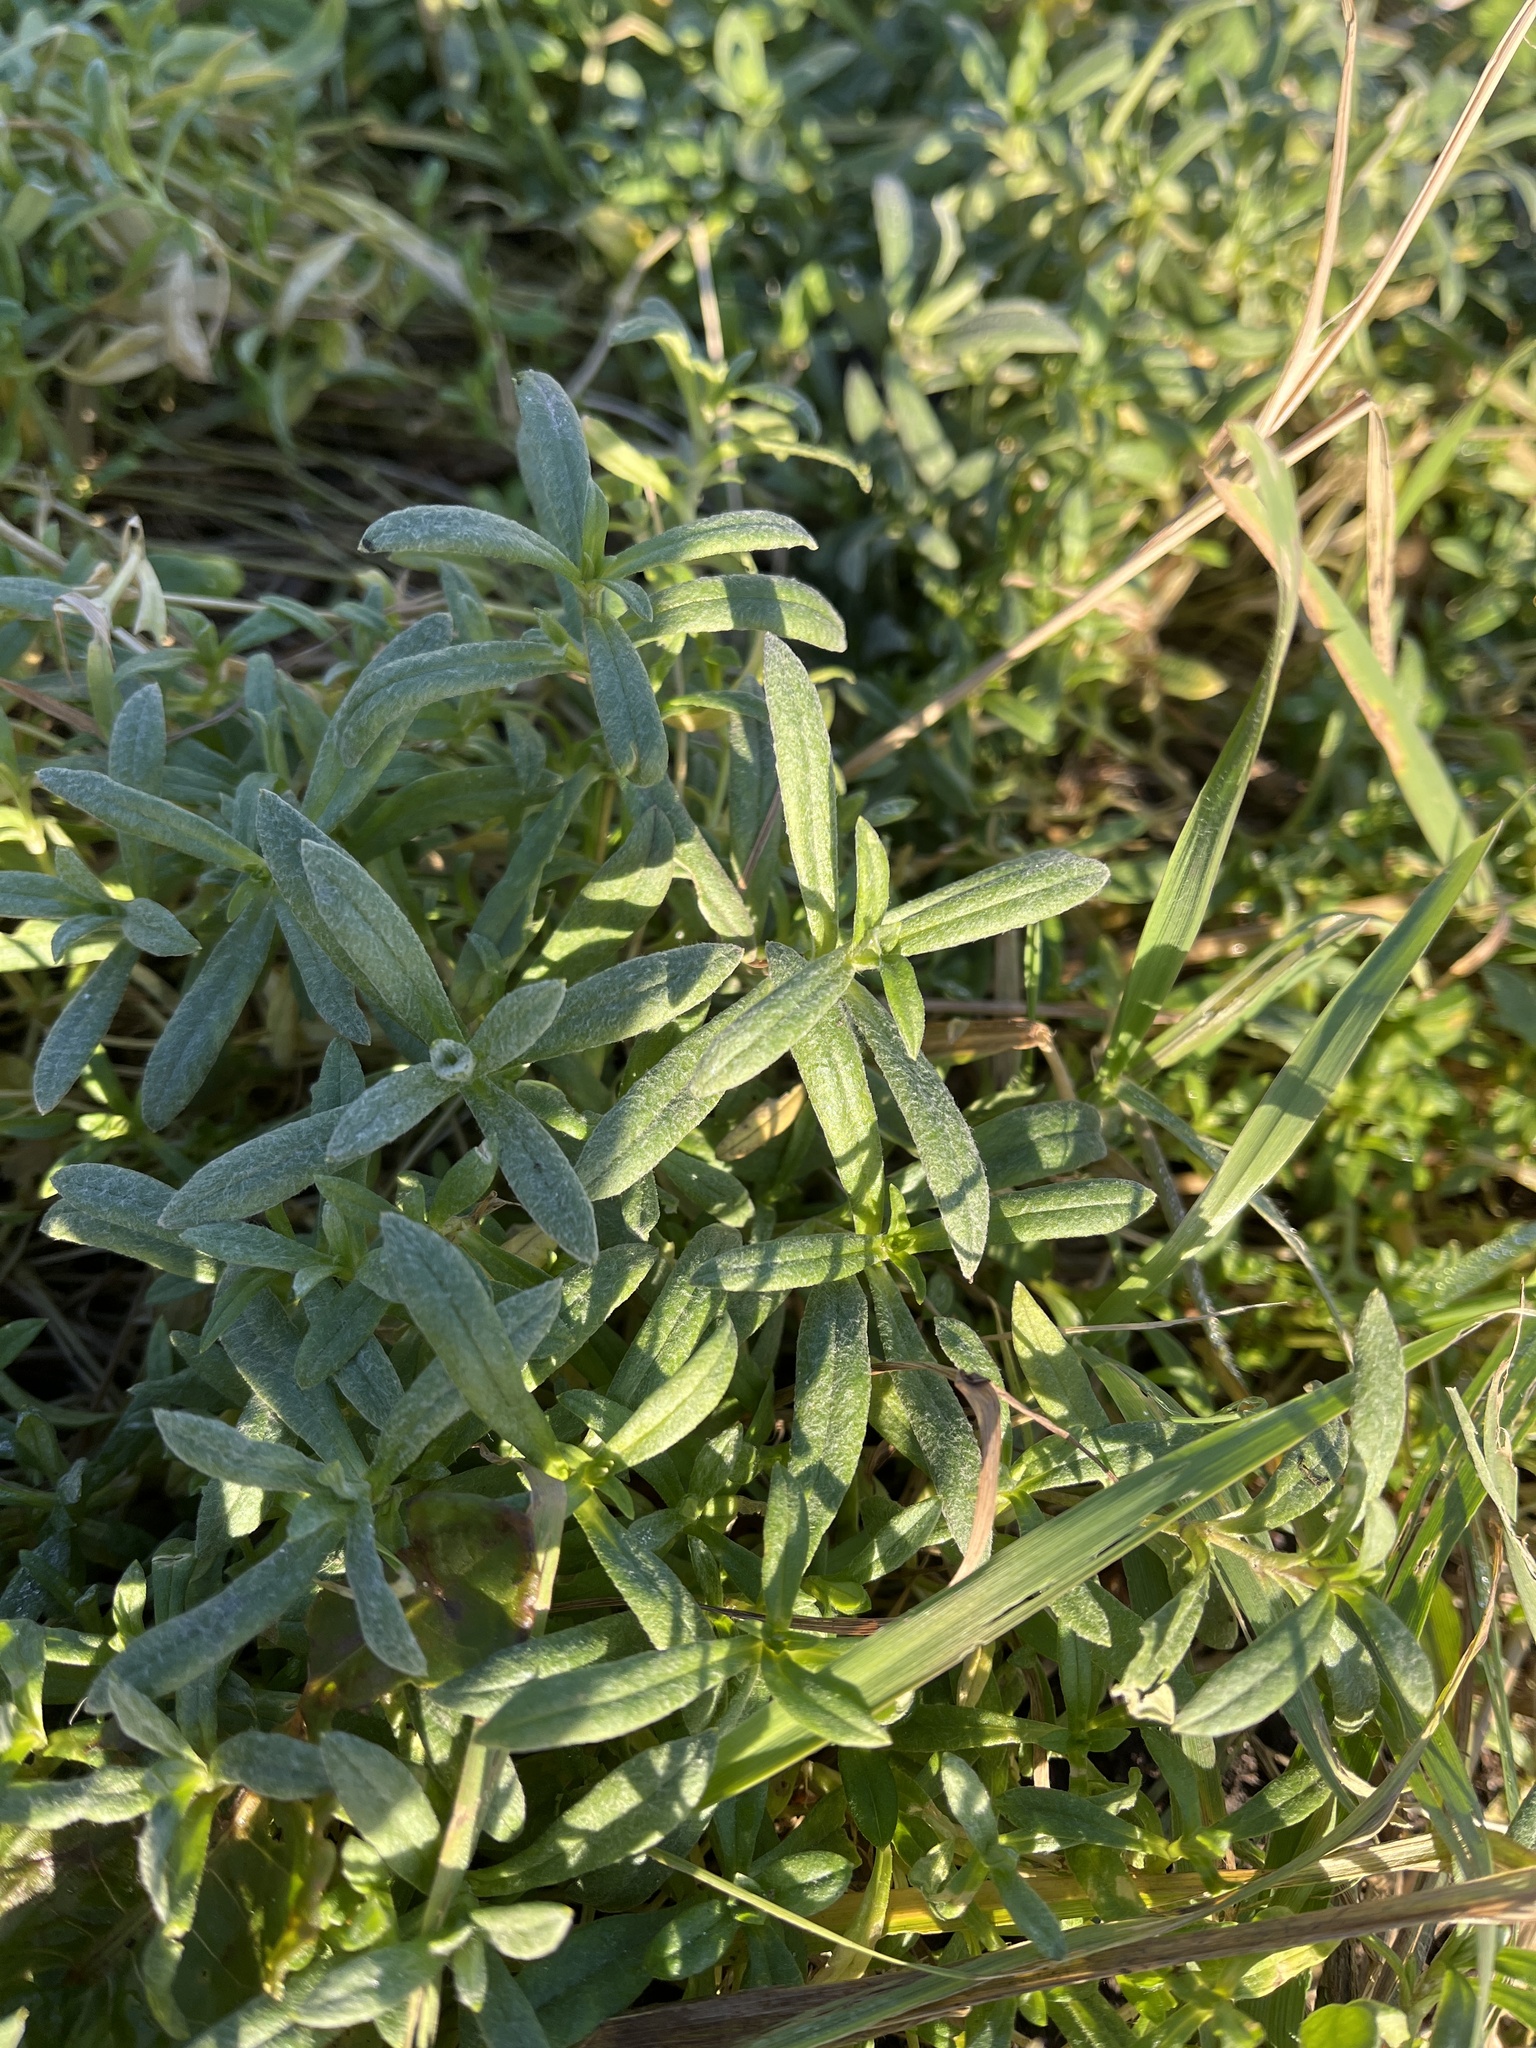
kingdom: Plantae
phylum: Tracheophyta
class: Magnoliopsida
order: Caryophyllales
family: Caryophyllaceae
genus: Cerastium
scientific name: Cerastium tomentosum
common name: Snow-in-summer
